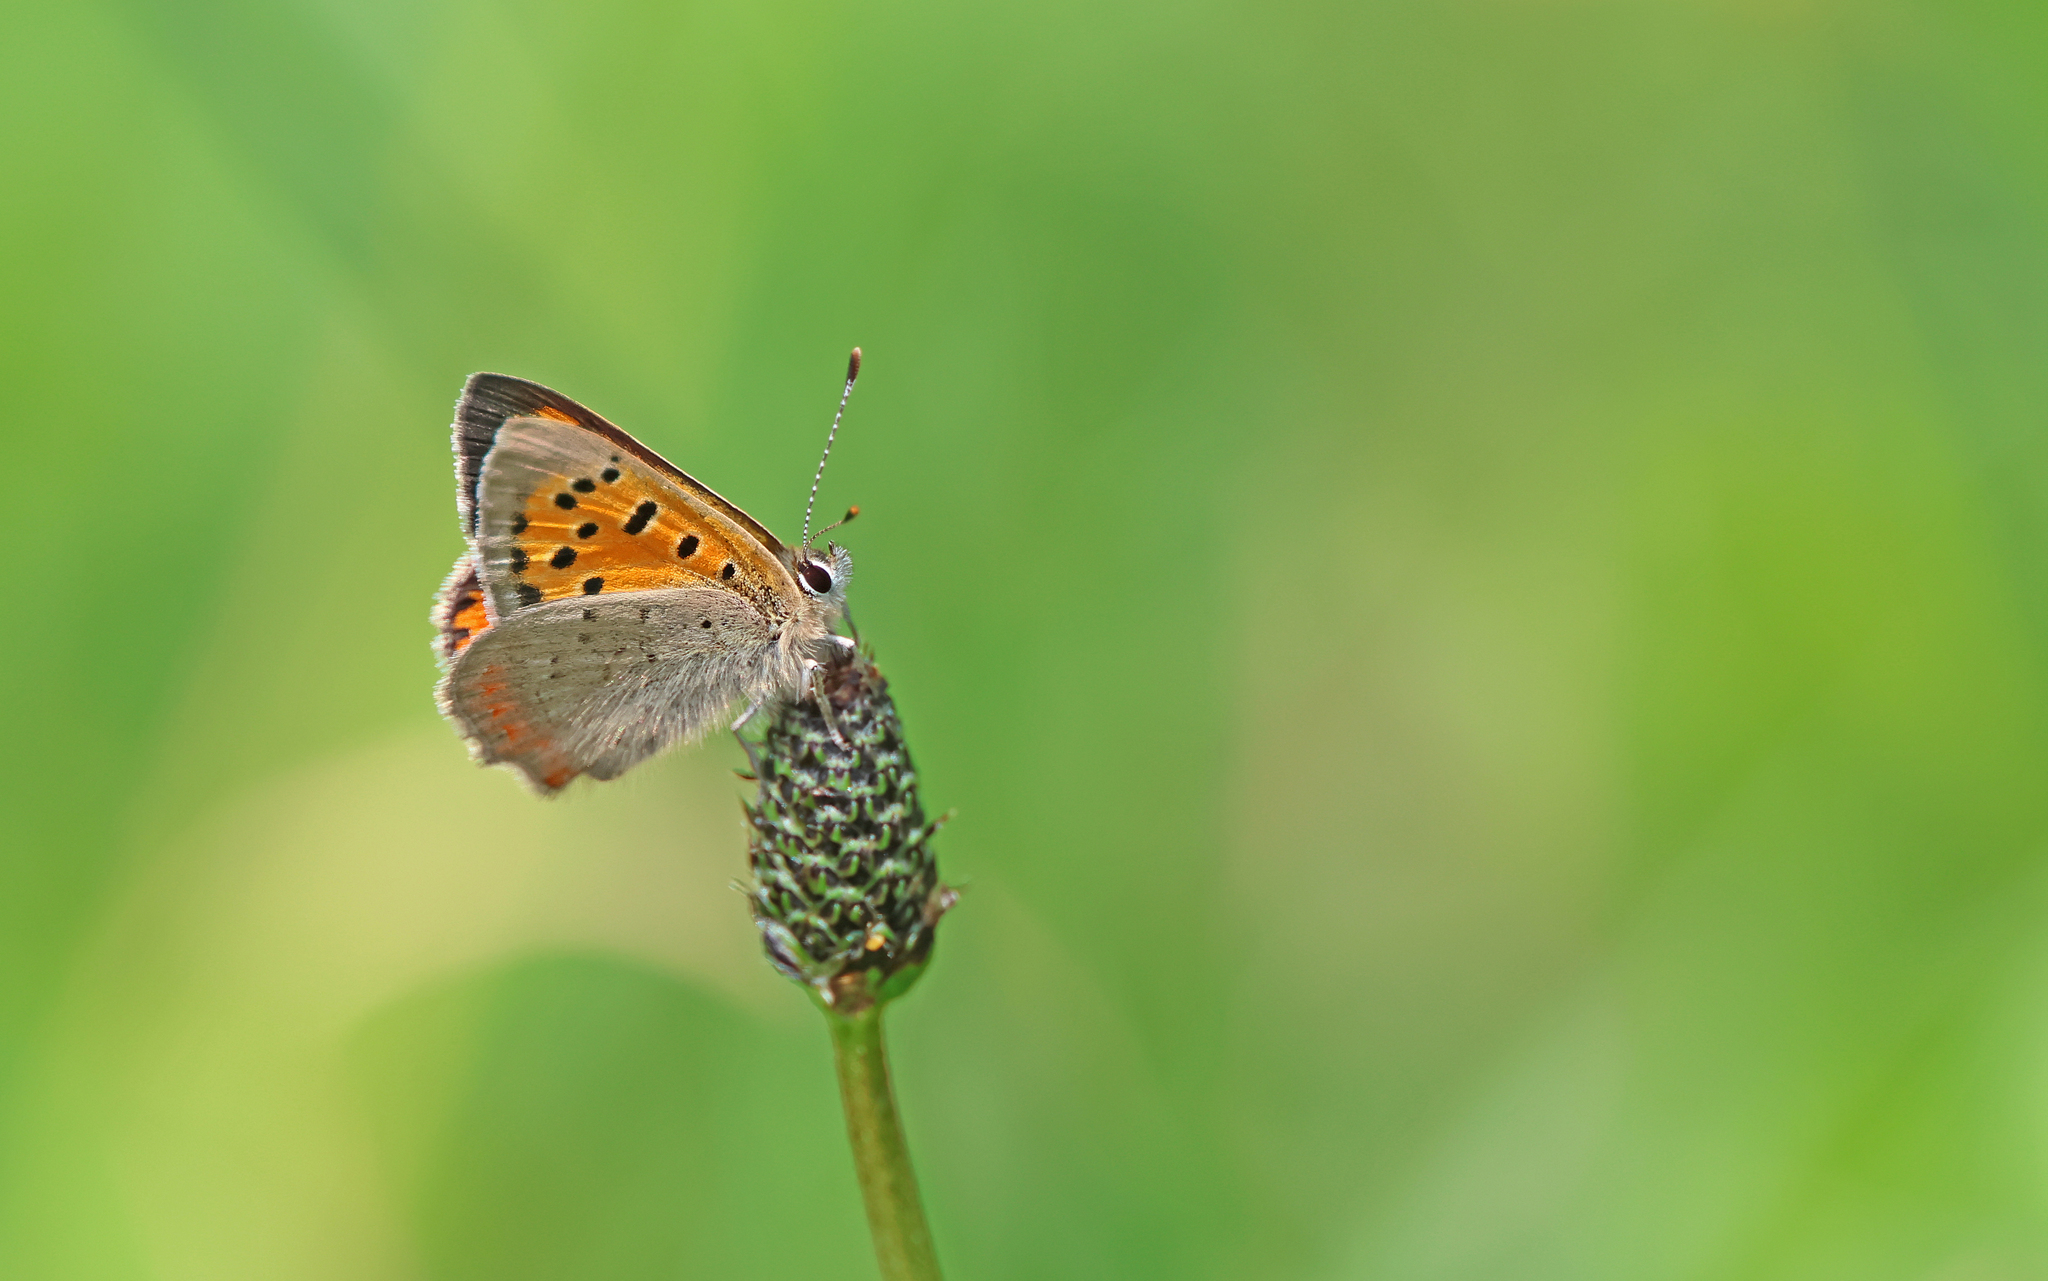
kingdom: Animalia
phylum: Arthropoda
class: Insecta
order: Lepidoptera
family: Lycaenidae
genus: Lycaena
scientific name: Lycaena phlaeas
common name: Small copper
